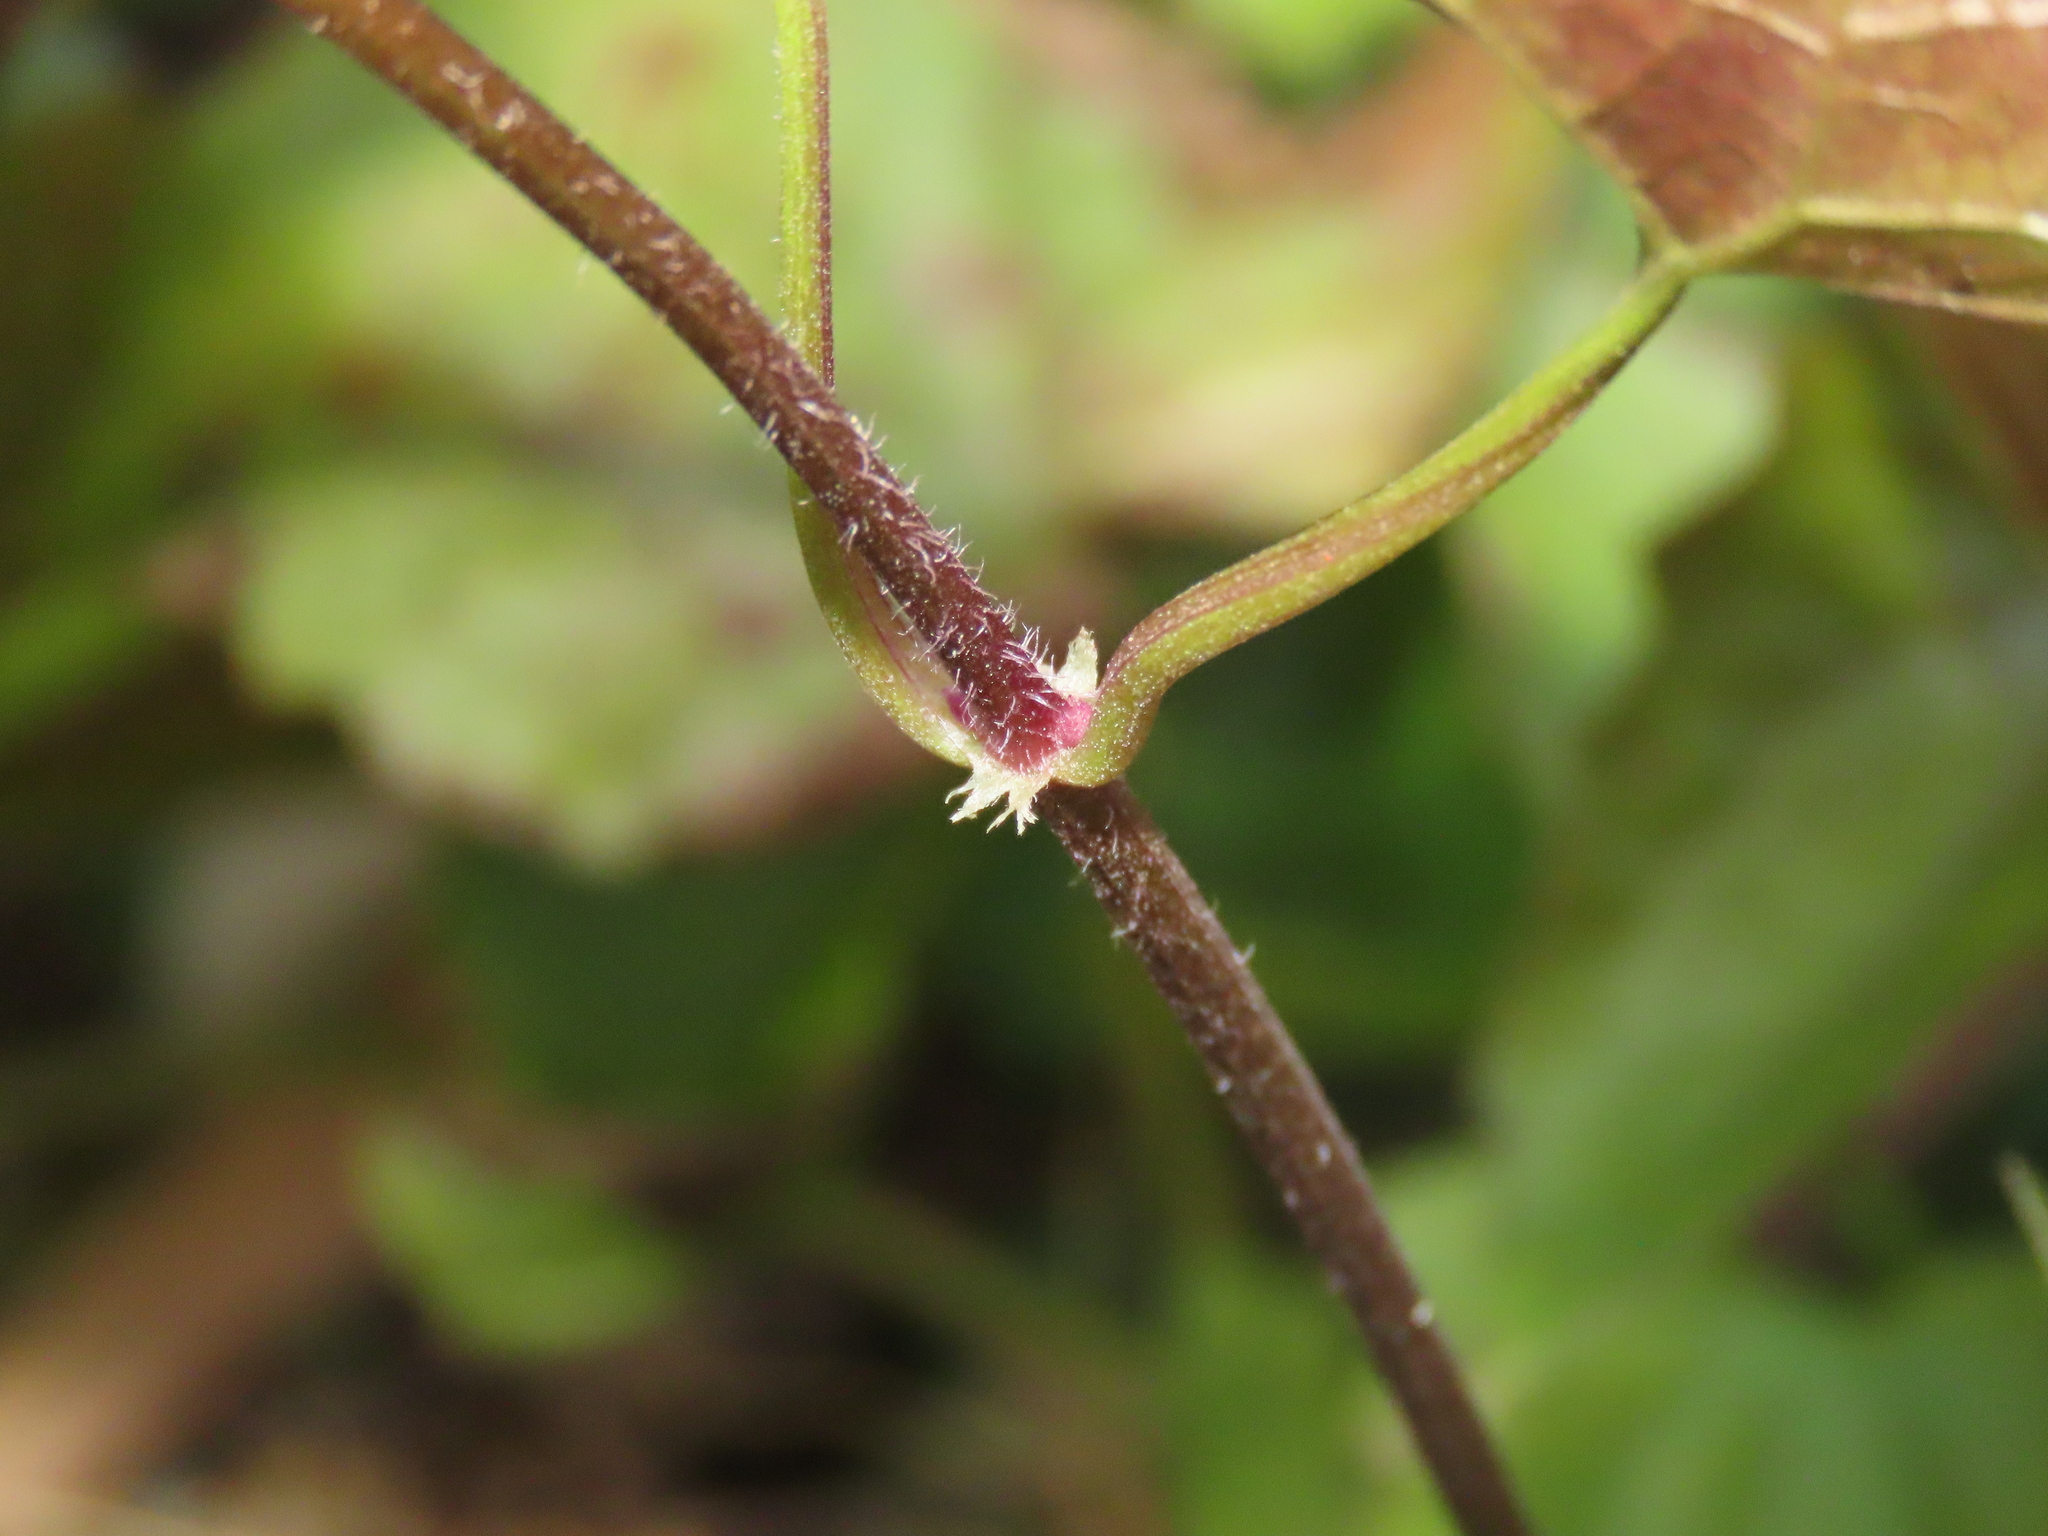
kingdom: Plantae
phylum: Tracheophyta
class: Magnoliopsida
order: Asterales
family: Asteraceae
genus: Mikania
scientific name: Mikania micrantha
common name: Mile-a-minute
